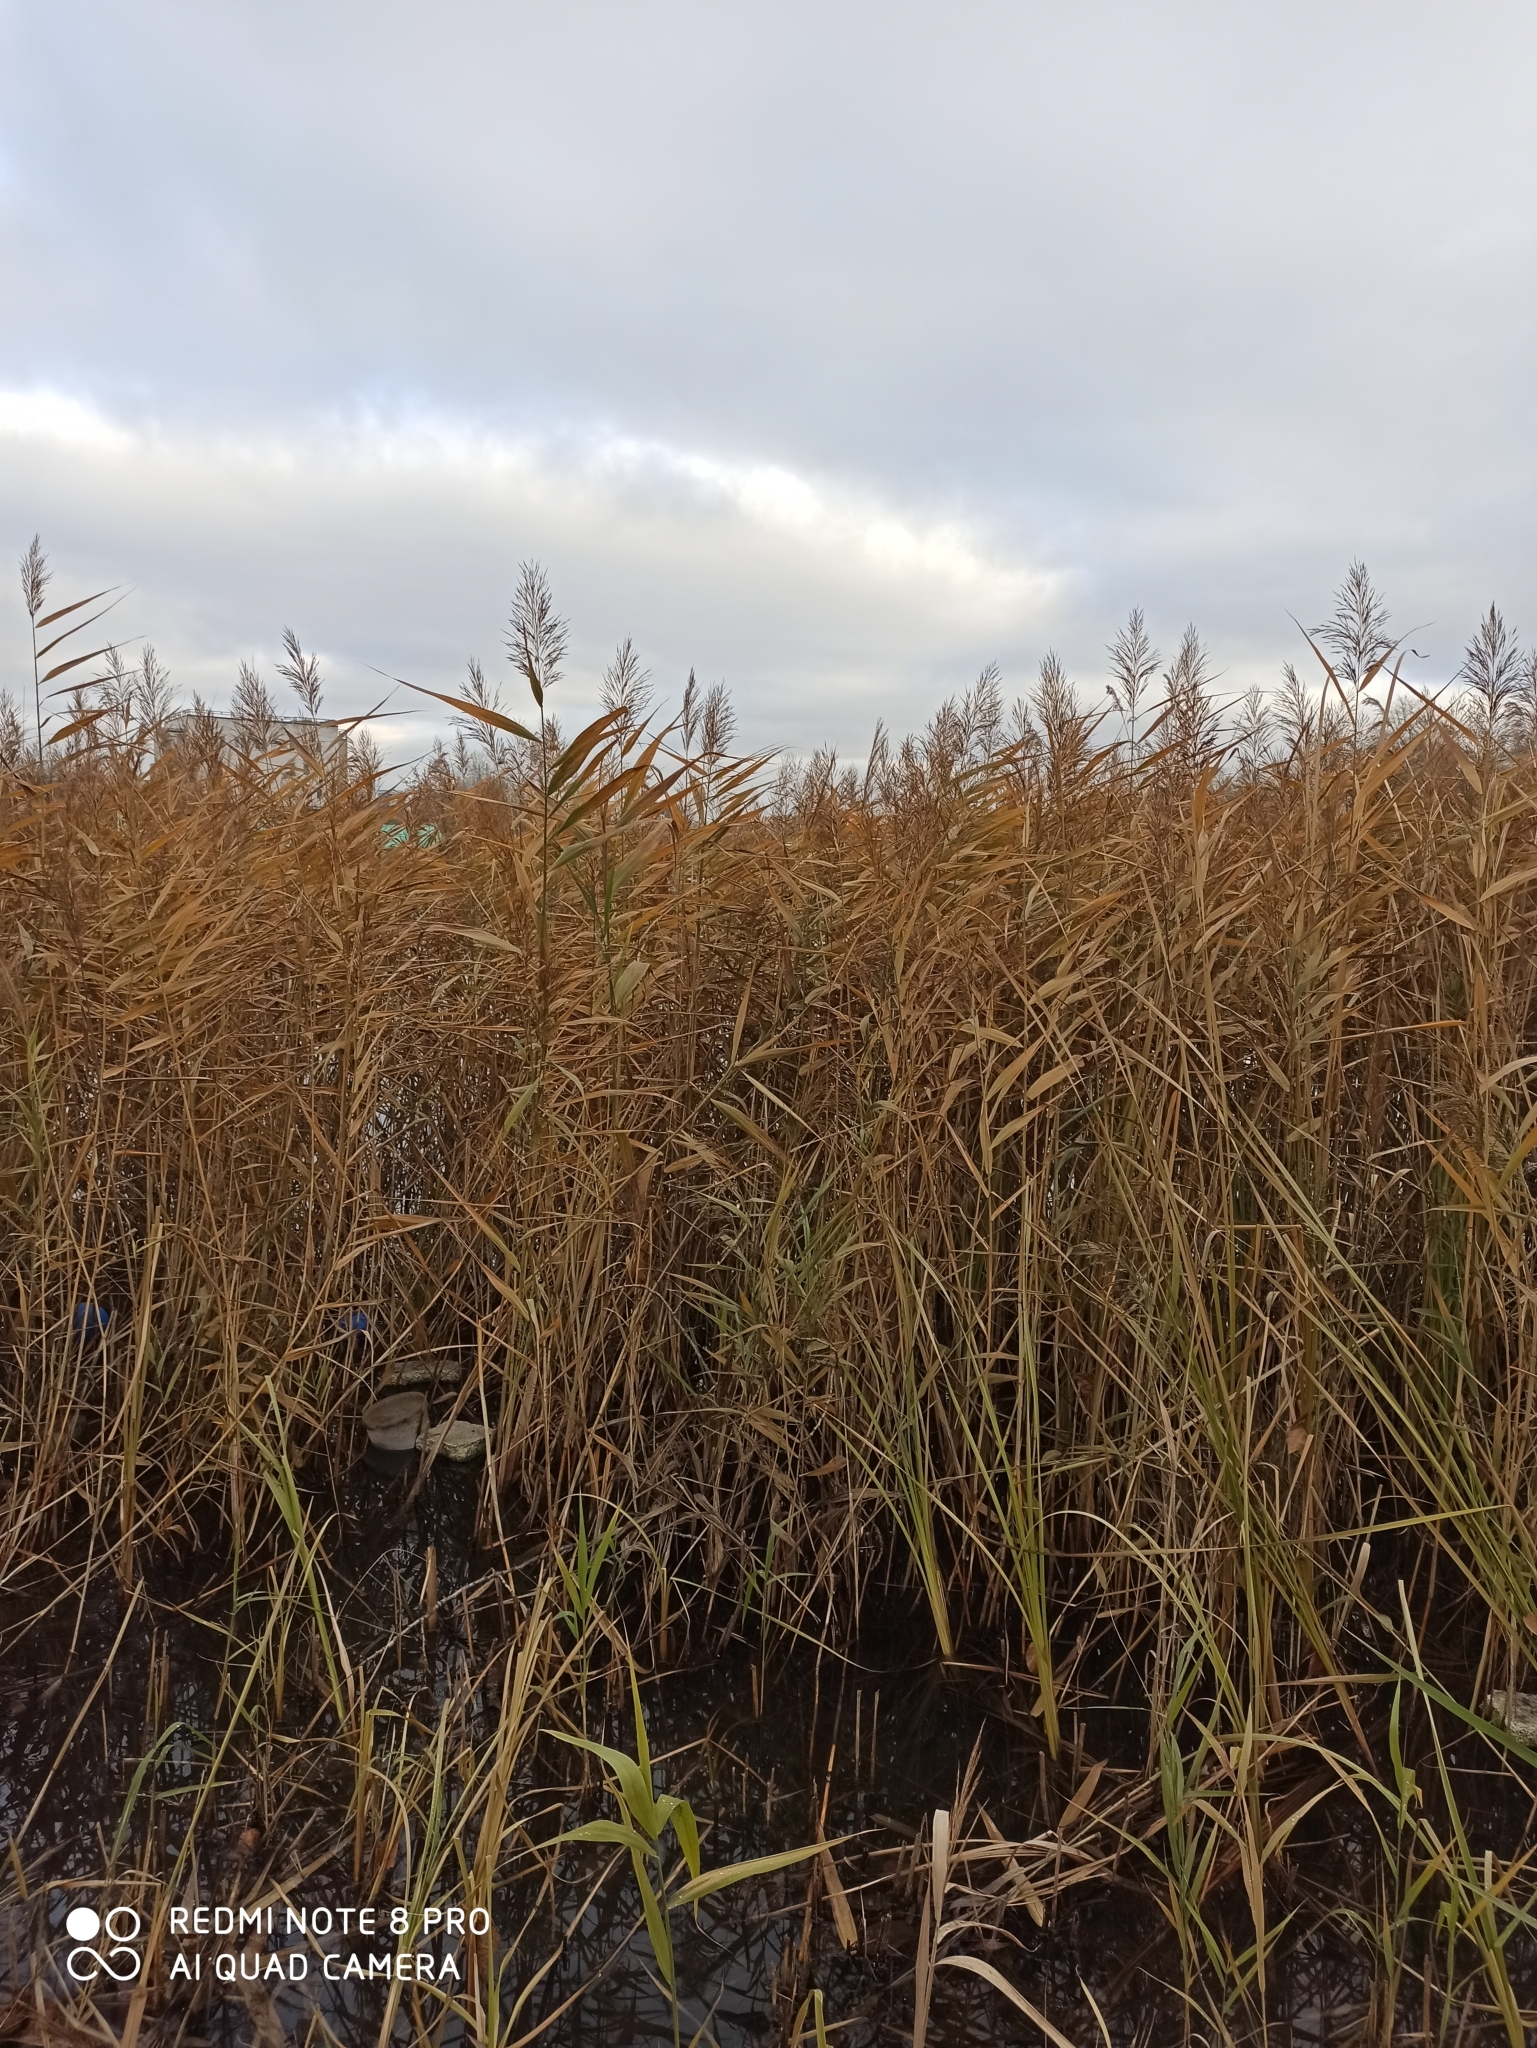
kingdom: Plantae
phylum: Tracheophyta
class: Liliopsida
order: Poales
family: Poaceae
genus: Phragmites
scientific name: Phragmites australis
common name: Common reed
